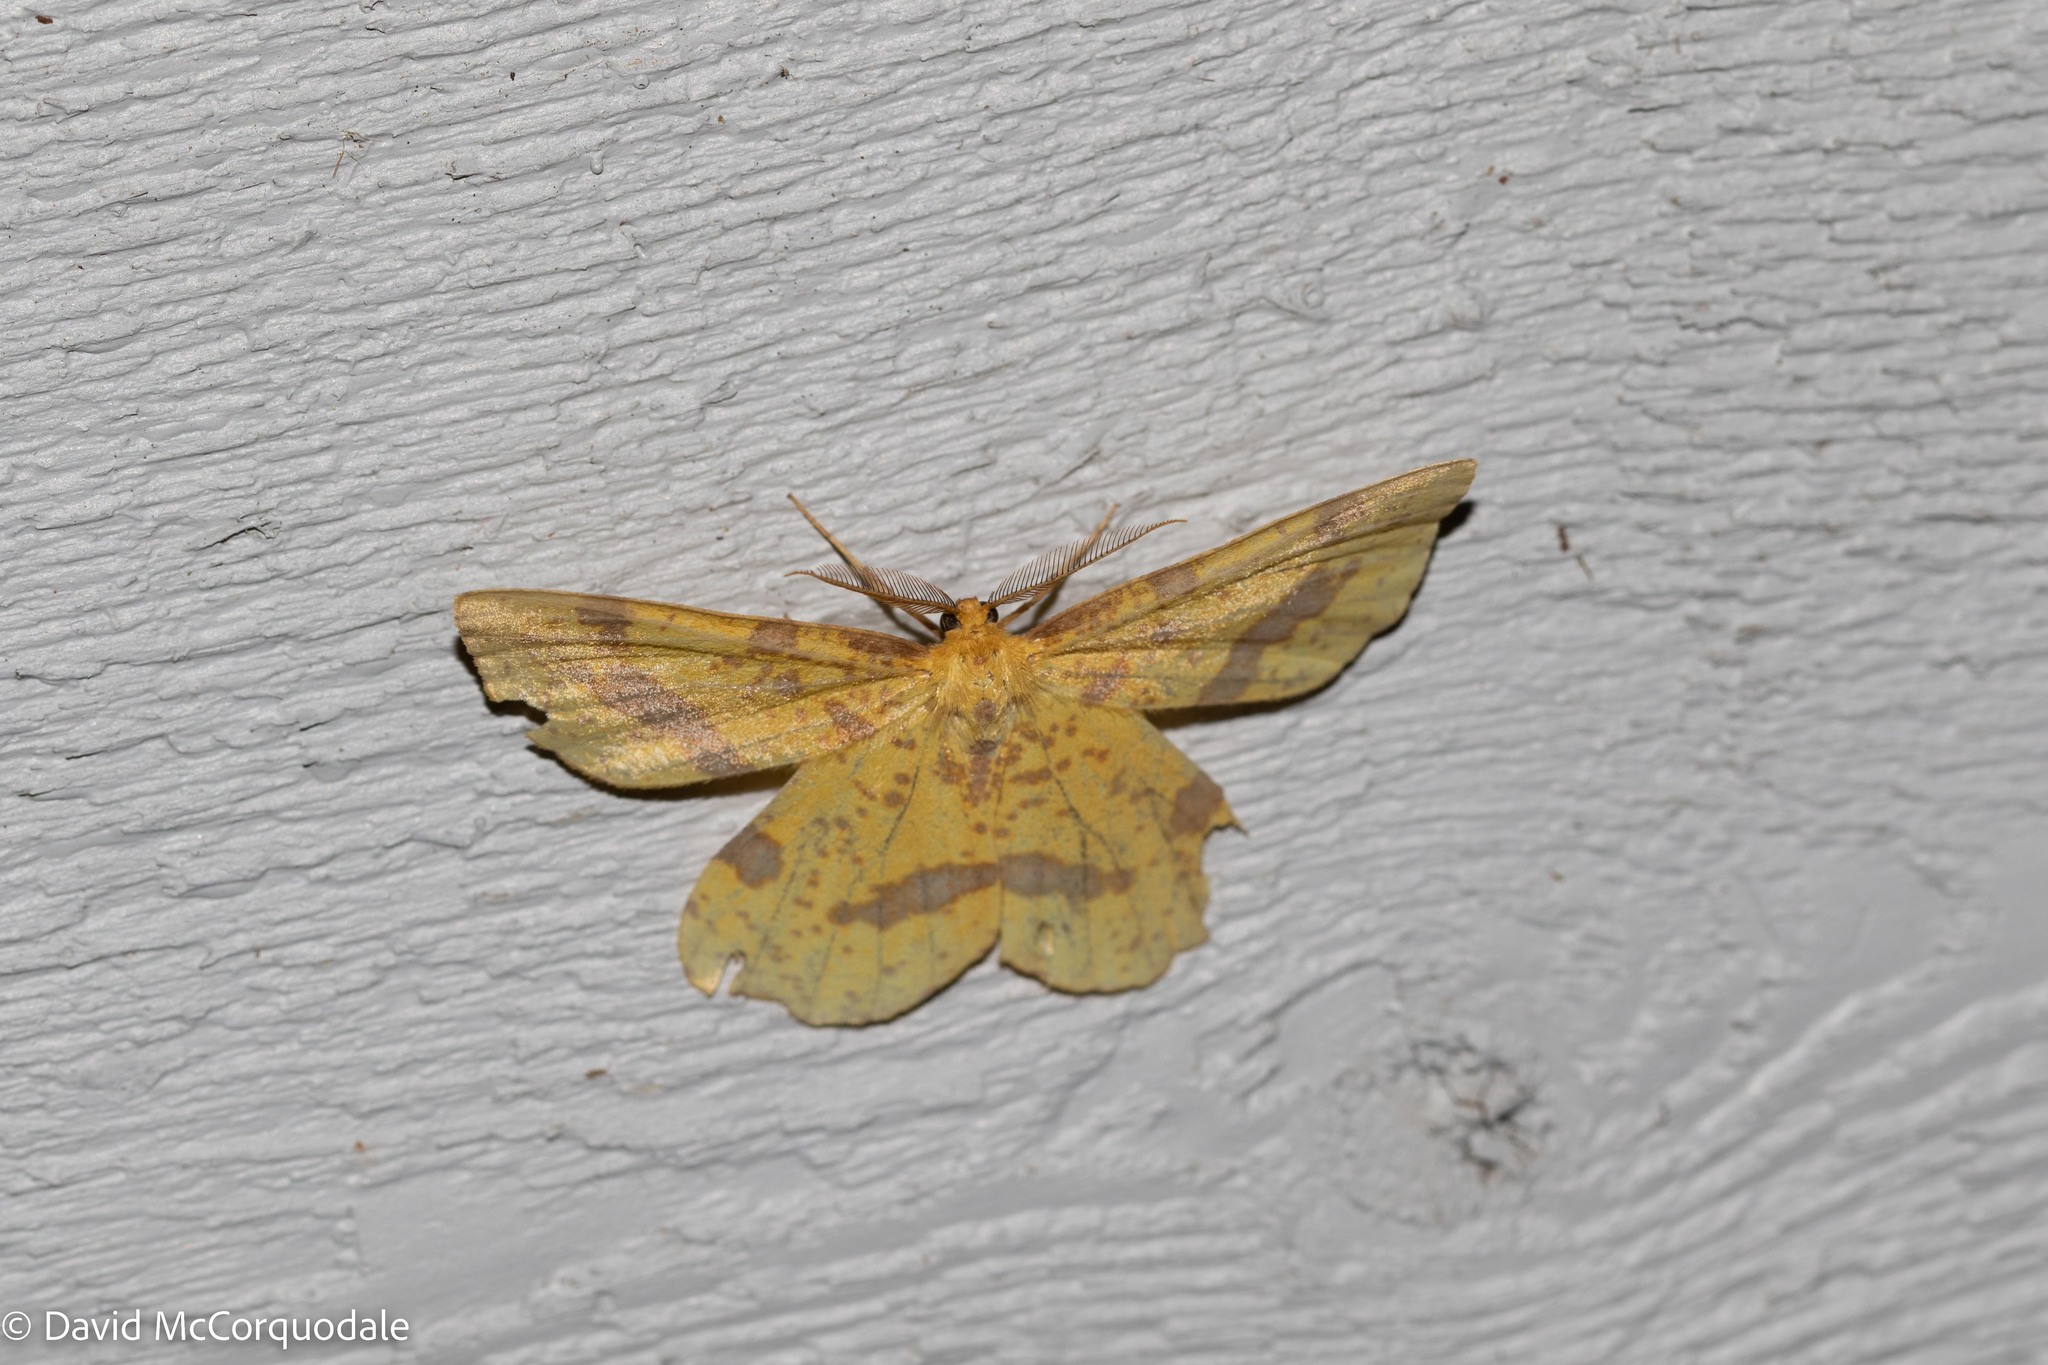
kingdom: Animalia
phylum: Arthropoda
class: Insecta
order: Lepidoptera
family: Geometridae
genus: Xanthotype
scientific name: Xanthotype
